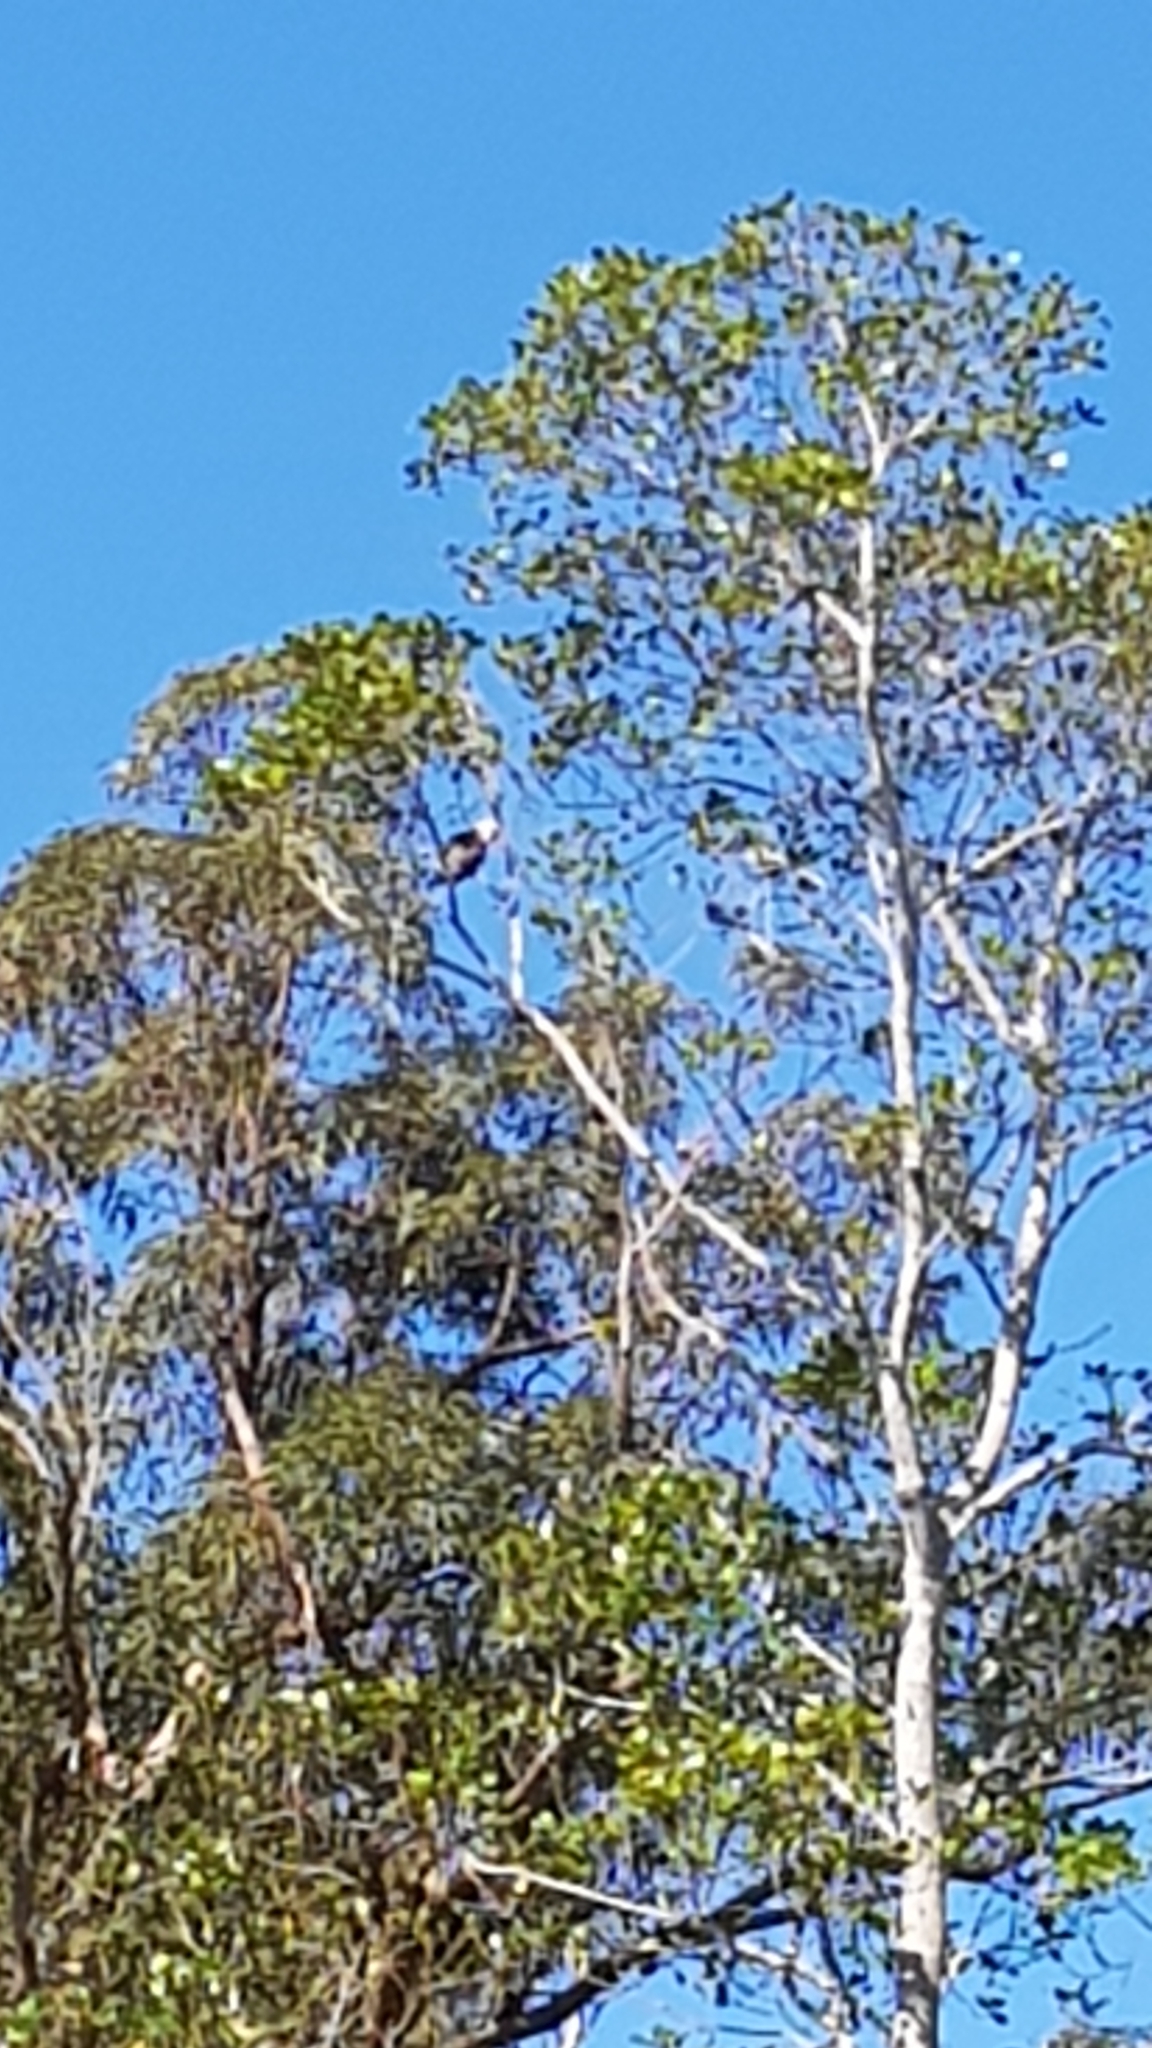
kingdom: Animalia
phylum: Chordata
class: Aves
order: Cuculiformes
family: Cuculidae
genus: Scythrops
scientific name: Scythrops novaehollandiae
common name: Channel-billed cuckoo
